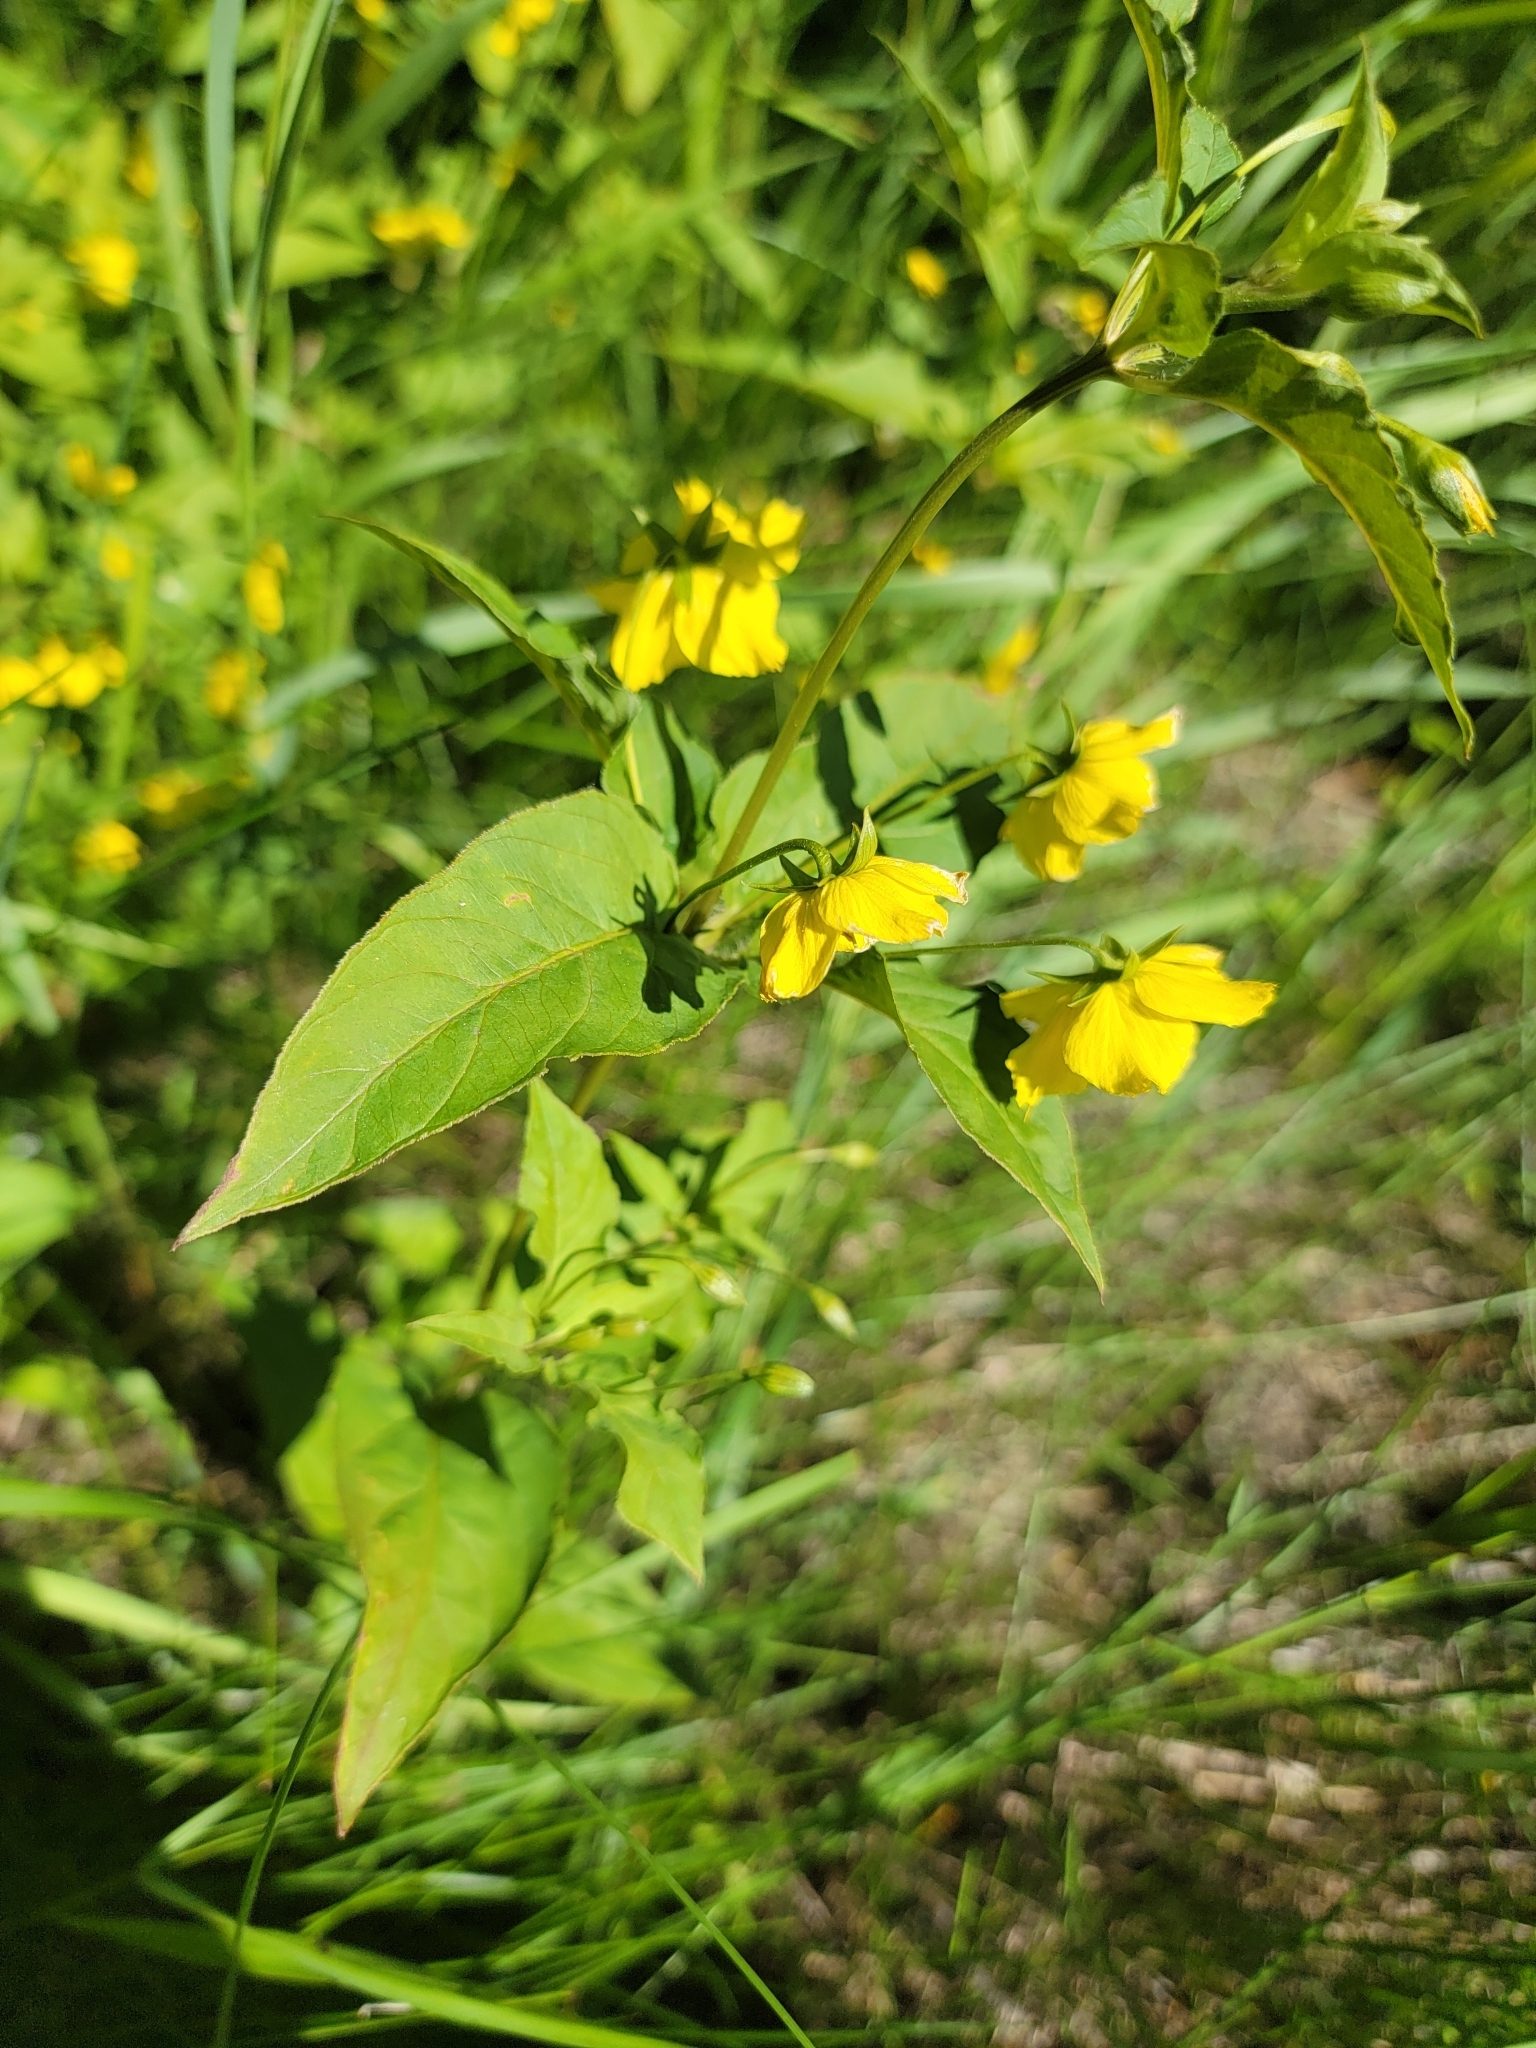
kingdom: Plantae
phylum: Tracheophyta
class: Magnoliopsida
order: Ericales
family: Primulaceae
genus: Lysimachia
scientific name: Lysimachia ciliata
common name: Fringed loosestrife
